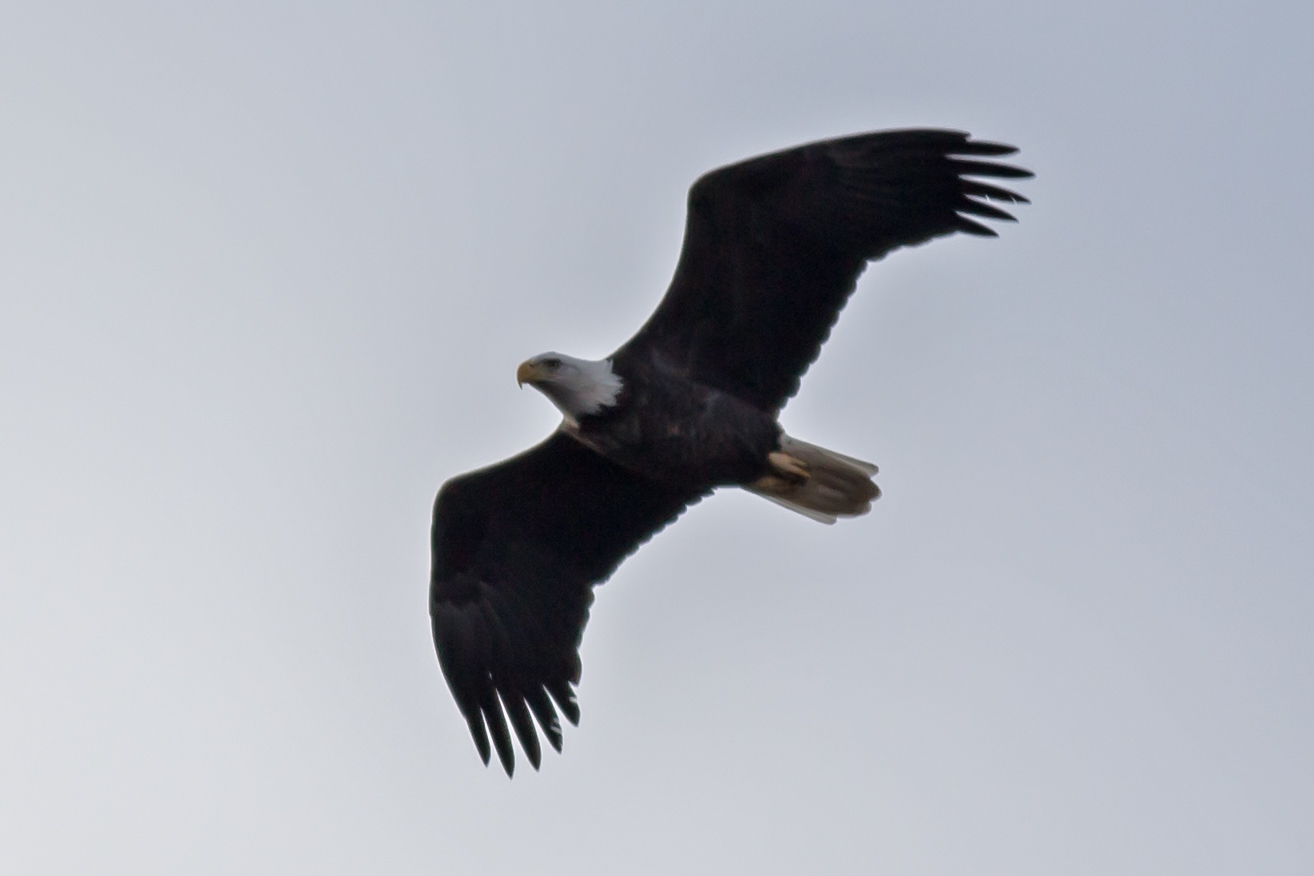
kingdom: Animalia
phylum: Chordata
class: Aves
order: Accipitriformes
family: Accipitridae
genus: Haliaeetus
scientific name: Haliaeetus leucocephalus
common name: Bald eagle
